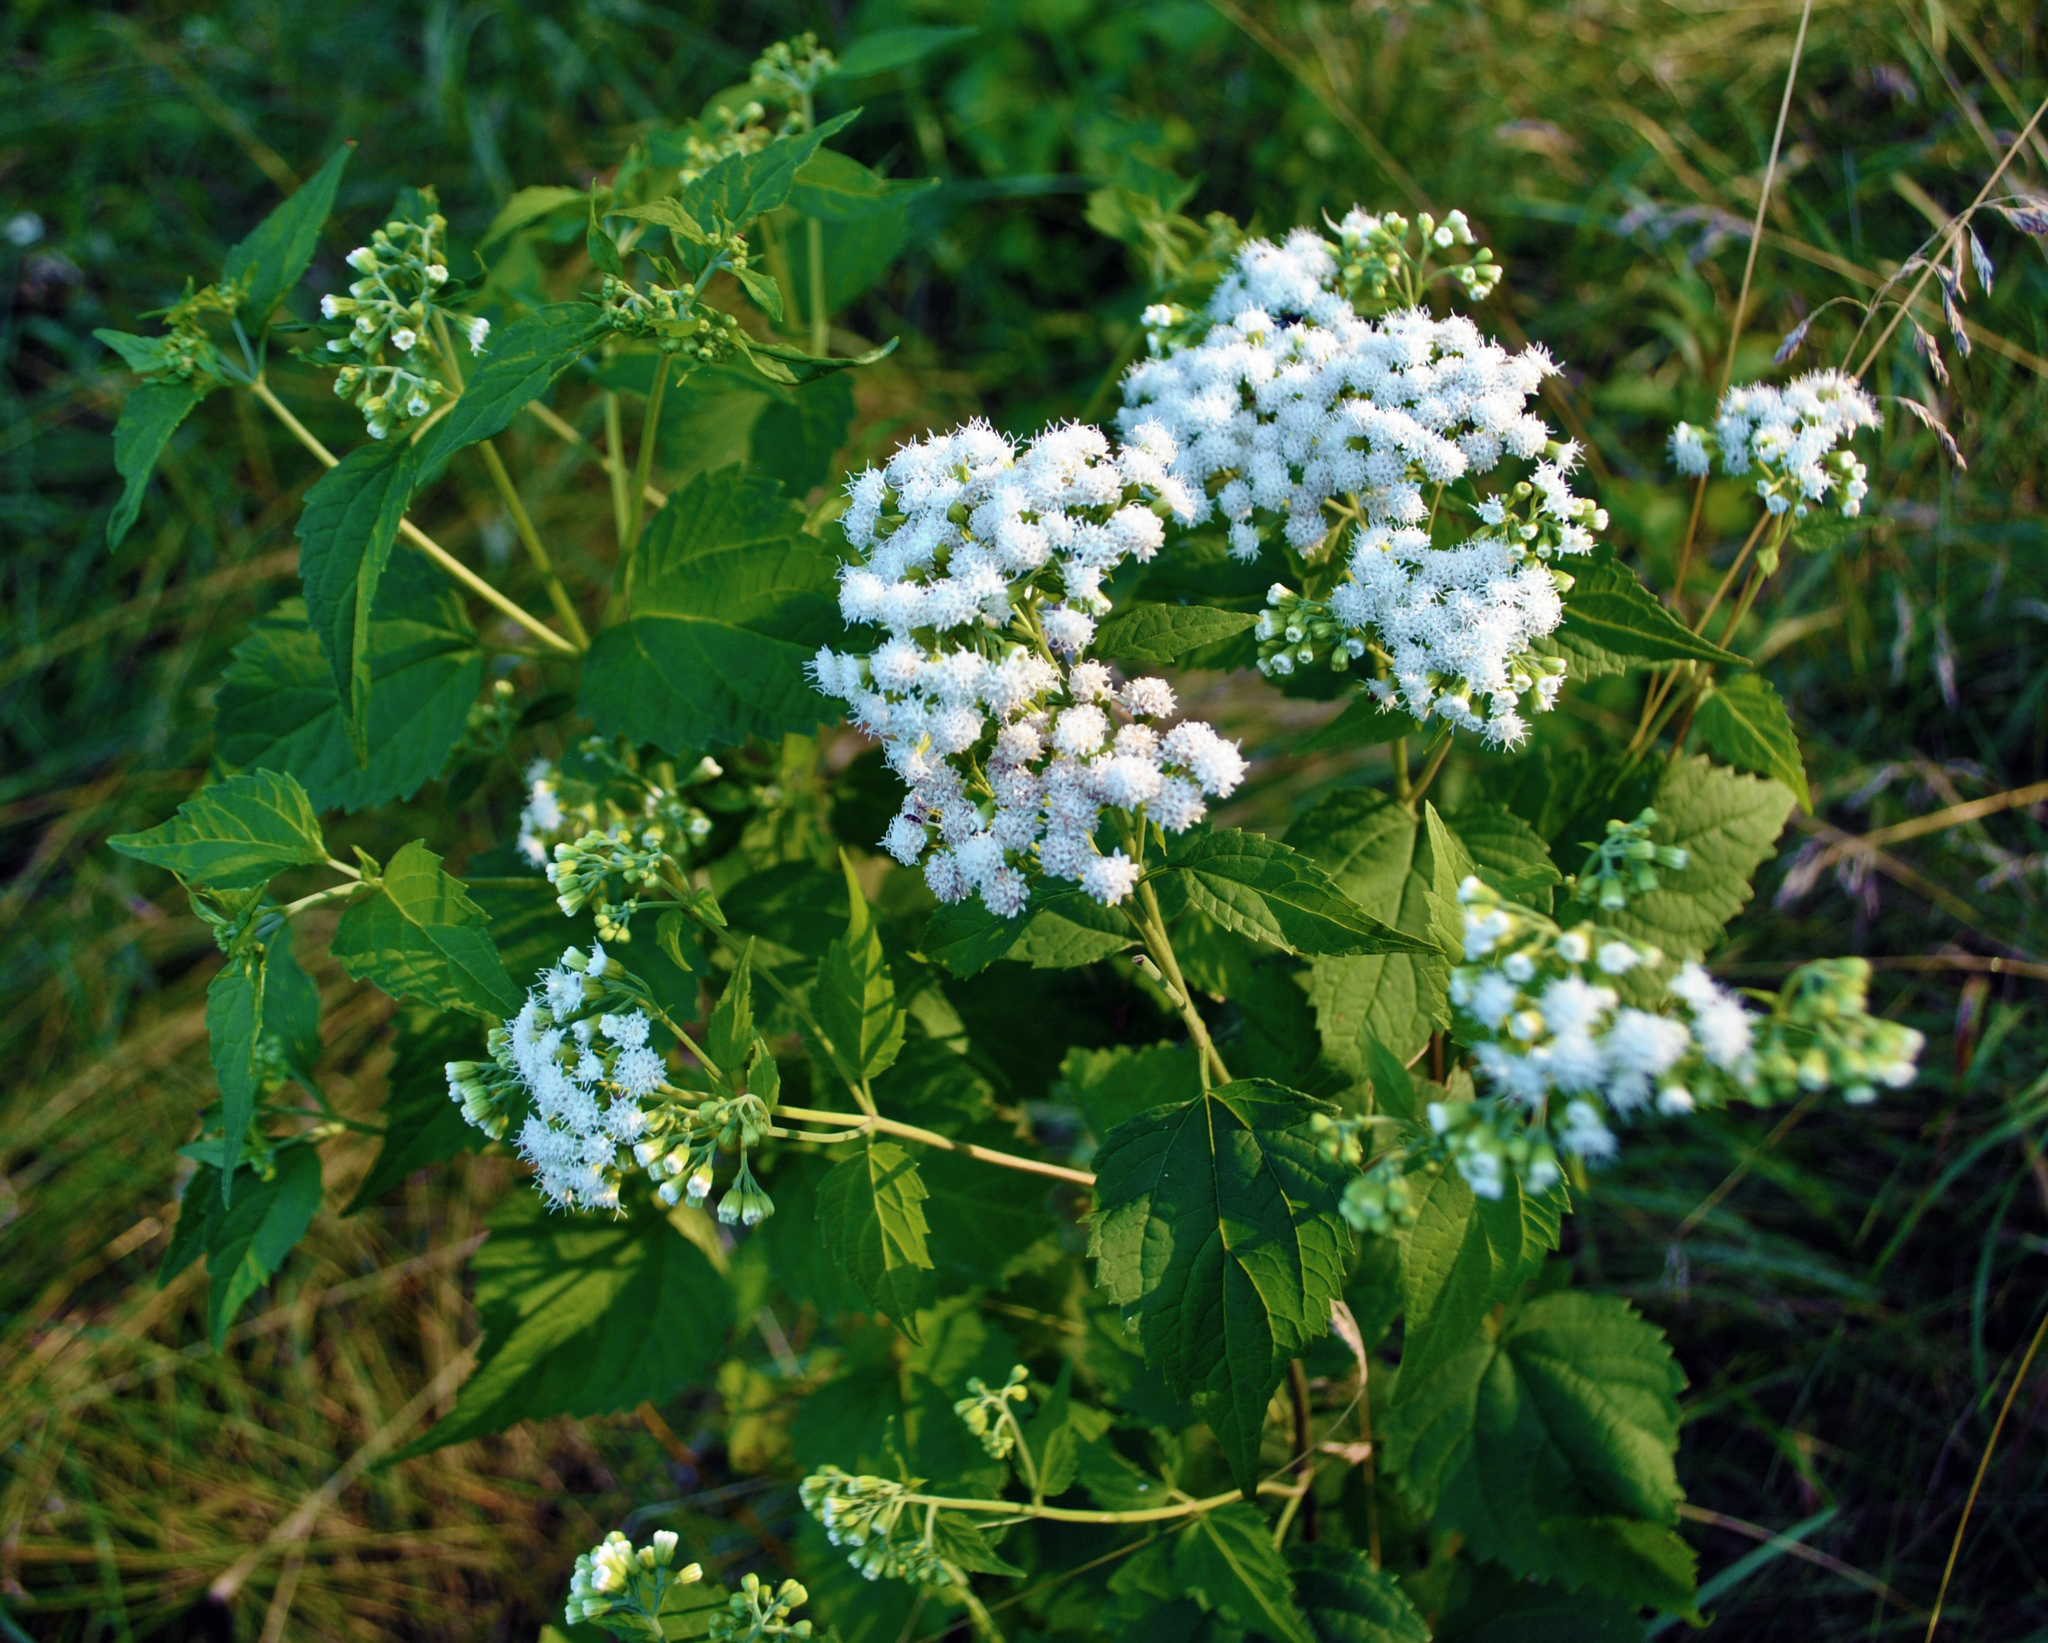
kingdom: Plantae
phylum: Tracheophyta
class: Magnoliopsida
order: Asterales
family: Asteraceae
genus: Ageratina
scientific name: Ageratina altissima
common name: White snakeroot
